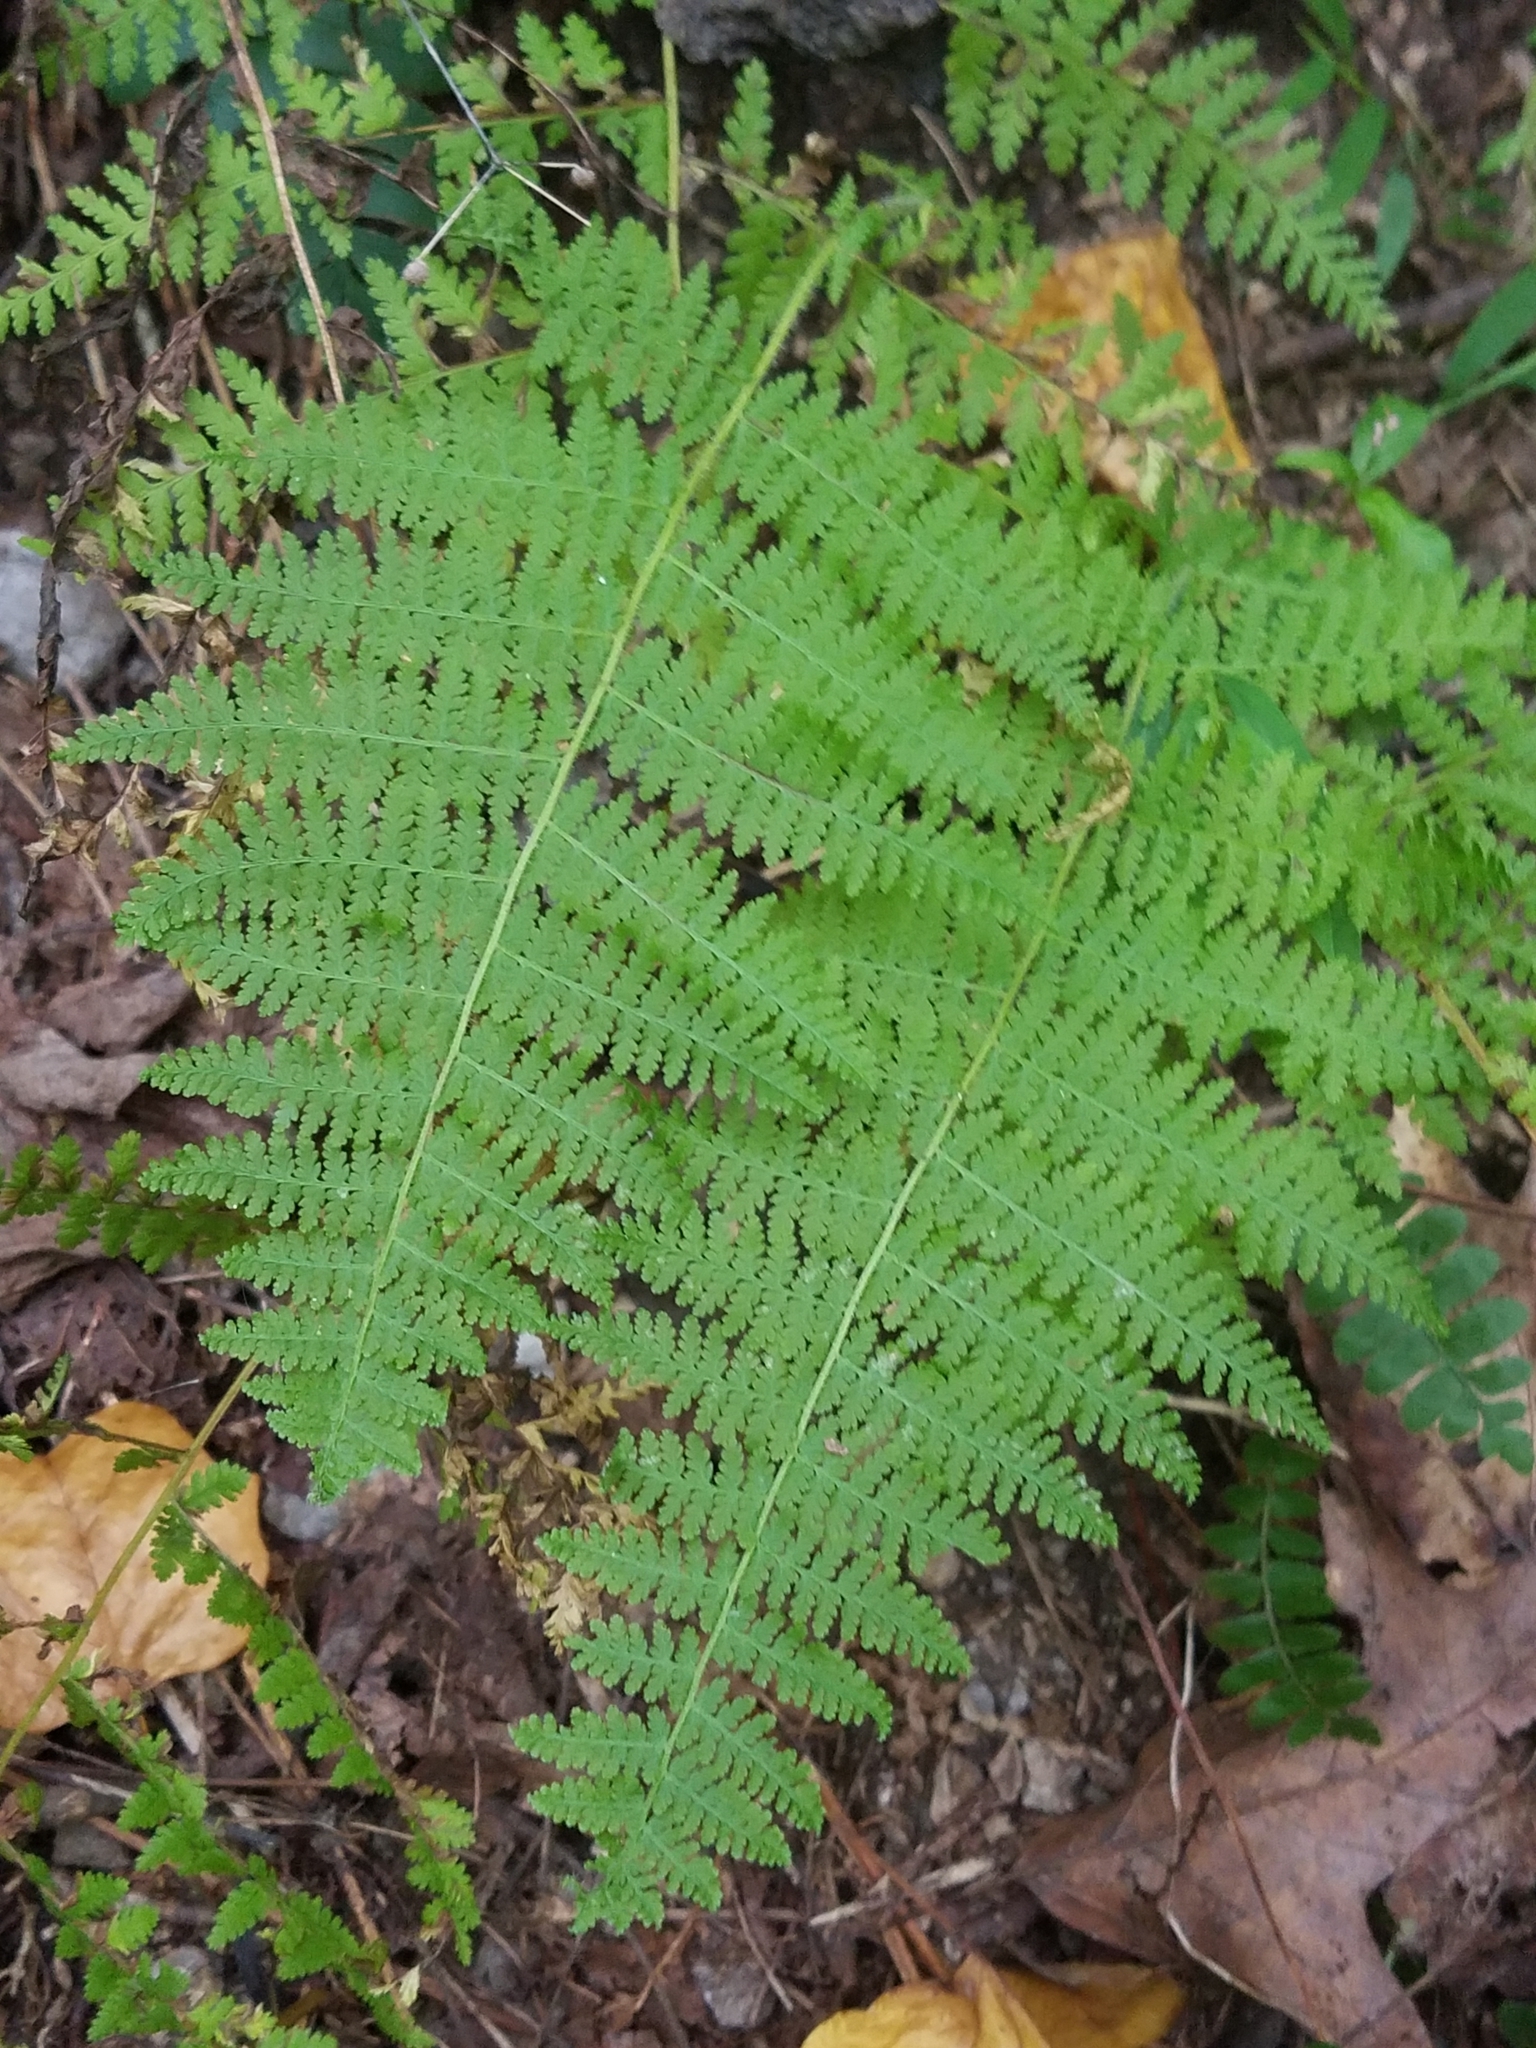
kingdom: Plantae
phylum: Tracheophyta
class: Polypodiopsida
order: Polypodiales
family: Dennstaedtiaceae
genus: Sitobolium
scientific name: Sitobolium punctilobum
